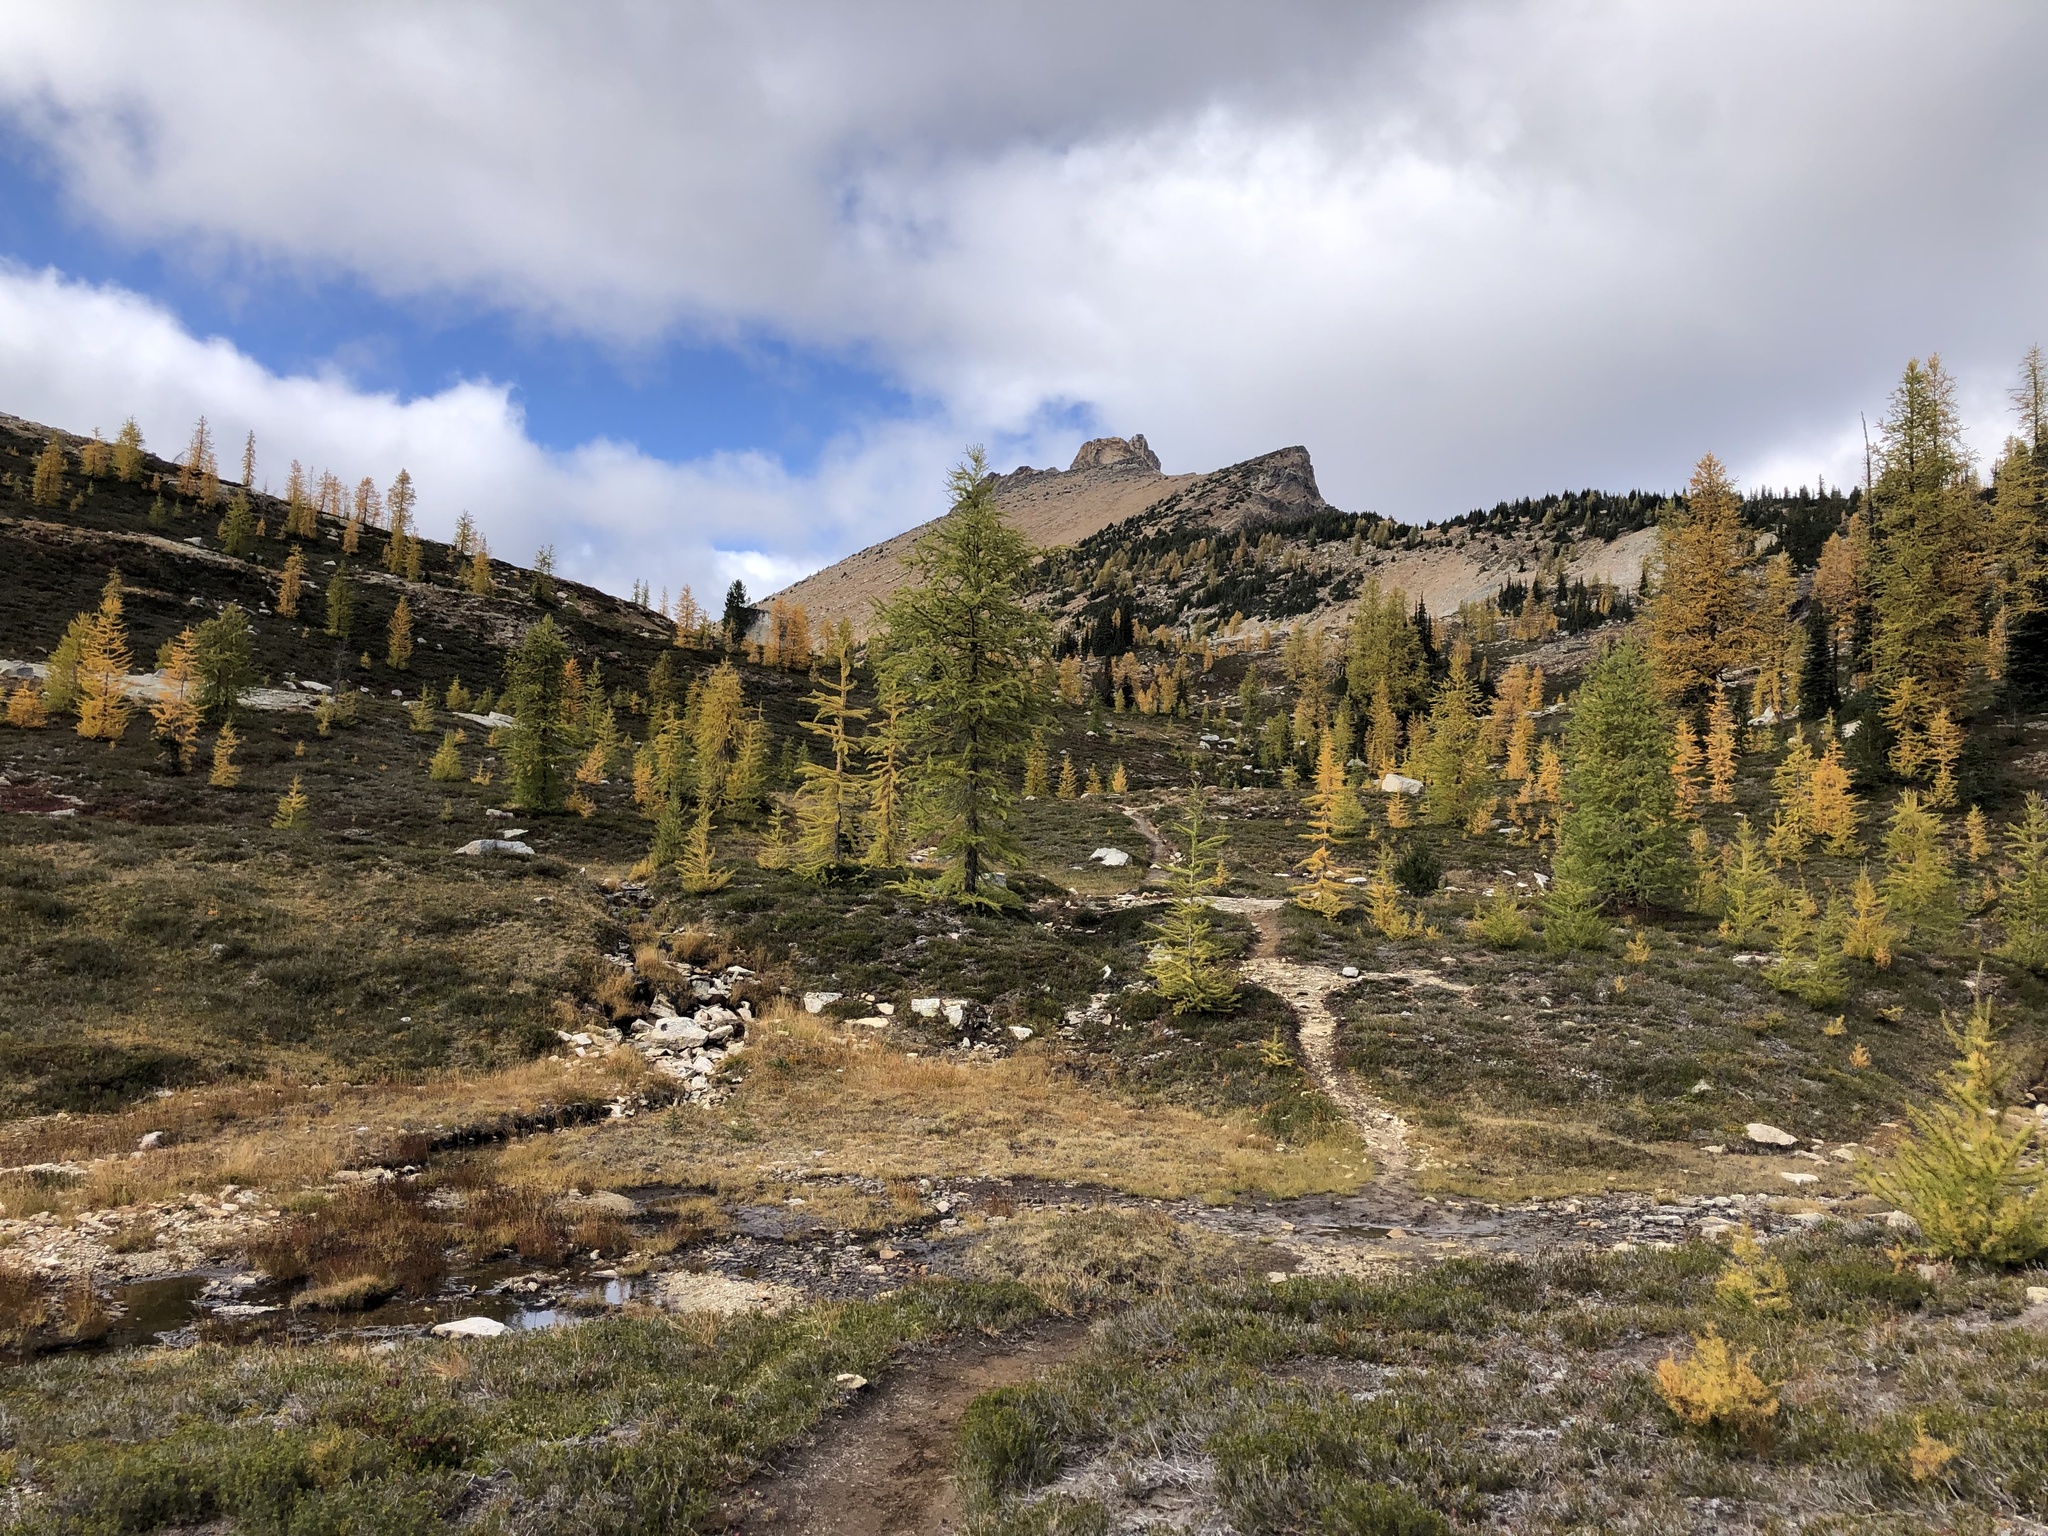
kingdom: Plantae
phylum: Tracheophyta
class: Pinopsida
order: Pinales
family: Pinaceae
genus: Larix
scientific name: Larix lyallii
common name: Alpine larch
